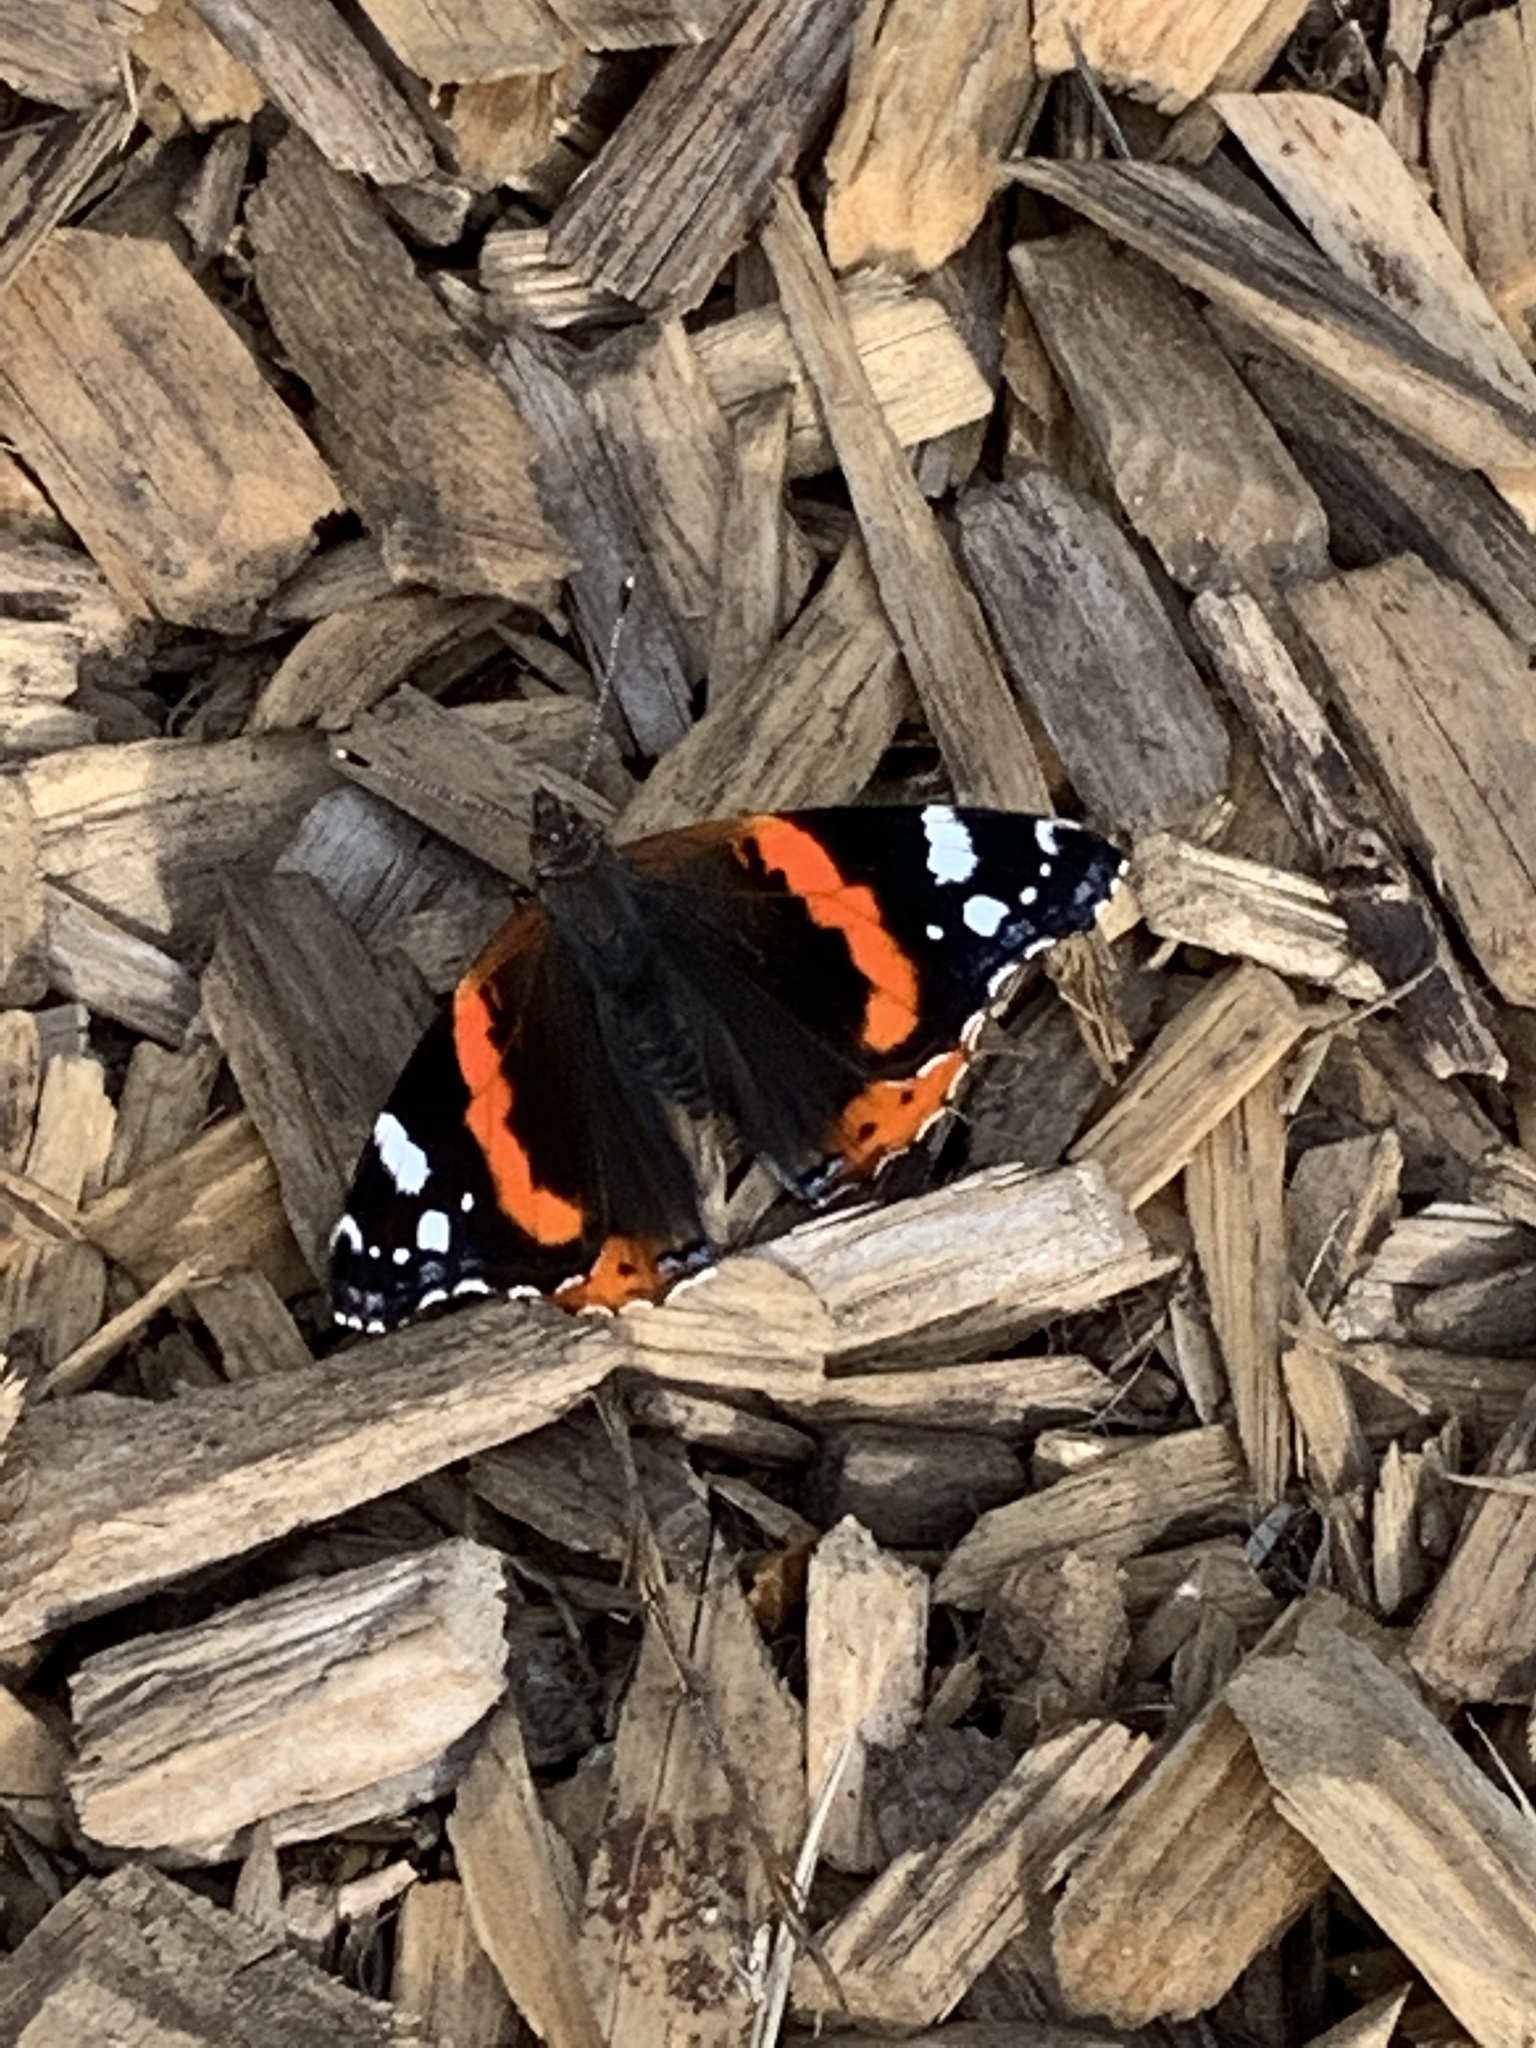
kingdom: Animalia
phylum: Arthropoda
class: Insecta
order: Lepidoptera
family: Nymphalidae
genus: Vanessa
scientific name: Vanessa atalanta
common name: Red admiral
